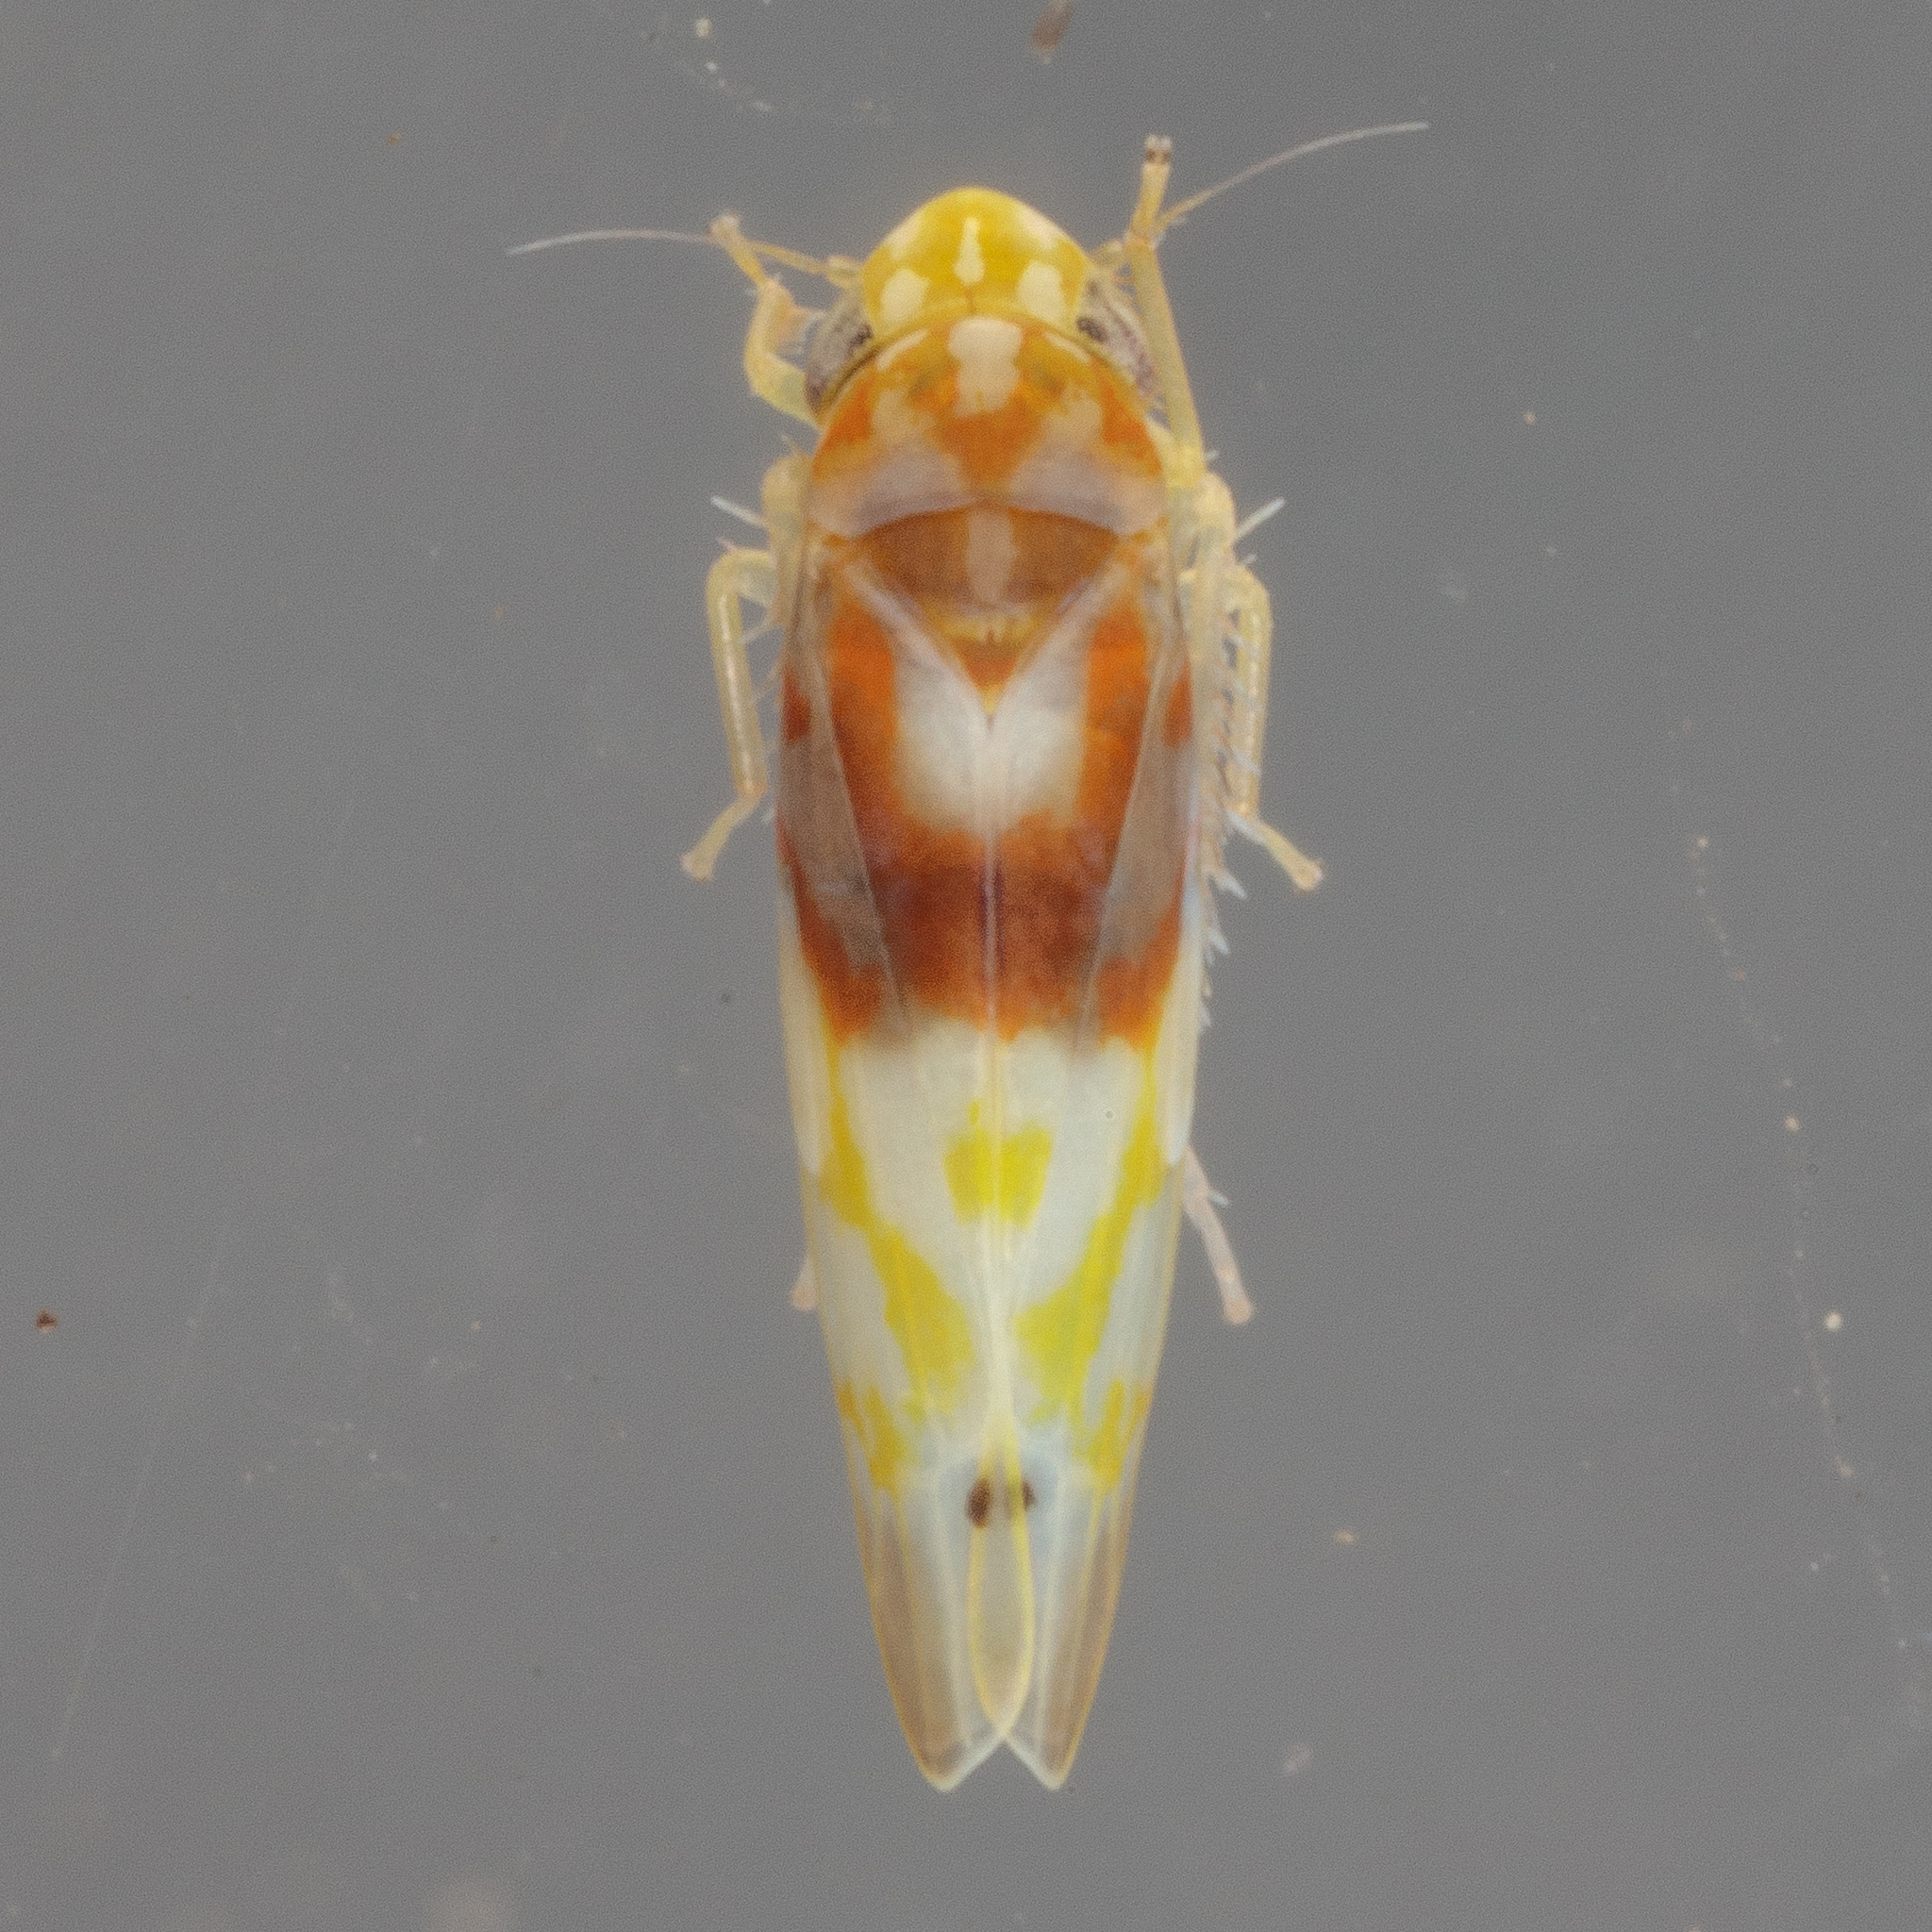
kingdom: Animalia
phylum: Arthropoda
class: Insecta
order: Hemiptera
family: Cicadellidae
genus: Eratoneura
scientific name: Eratoneura affinis
